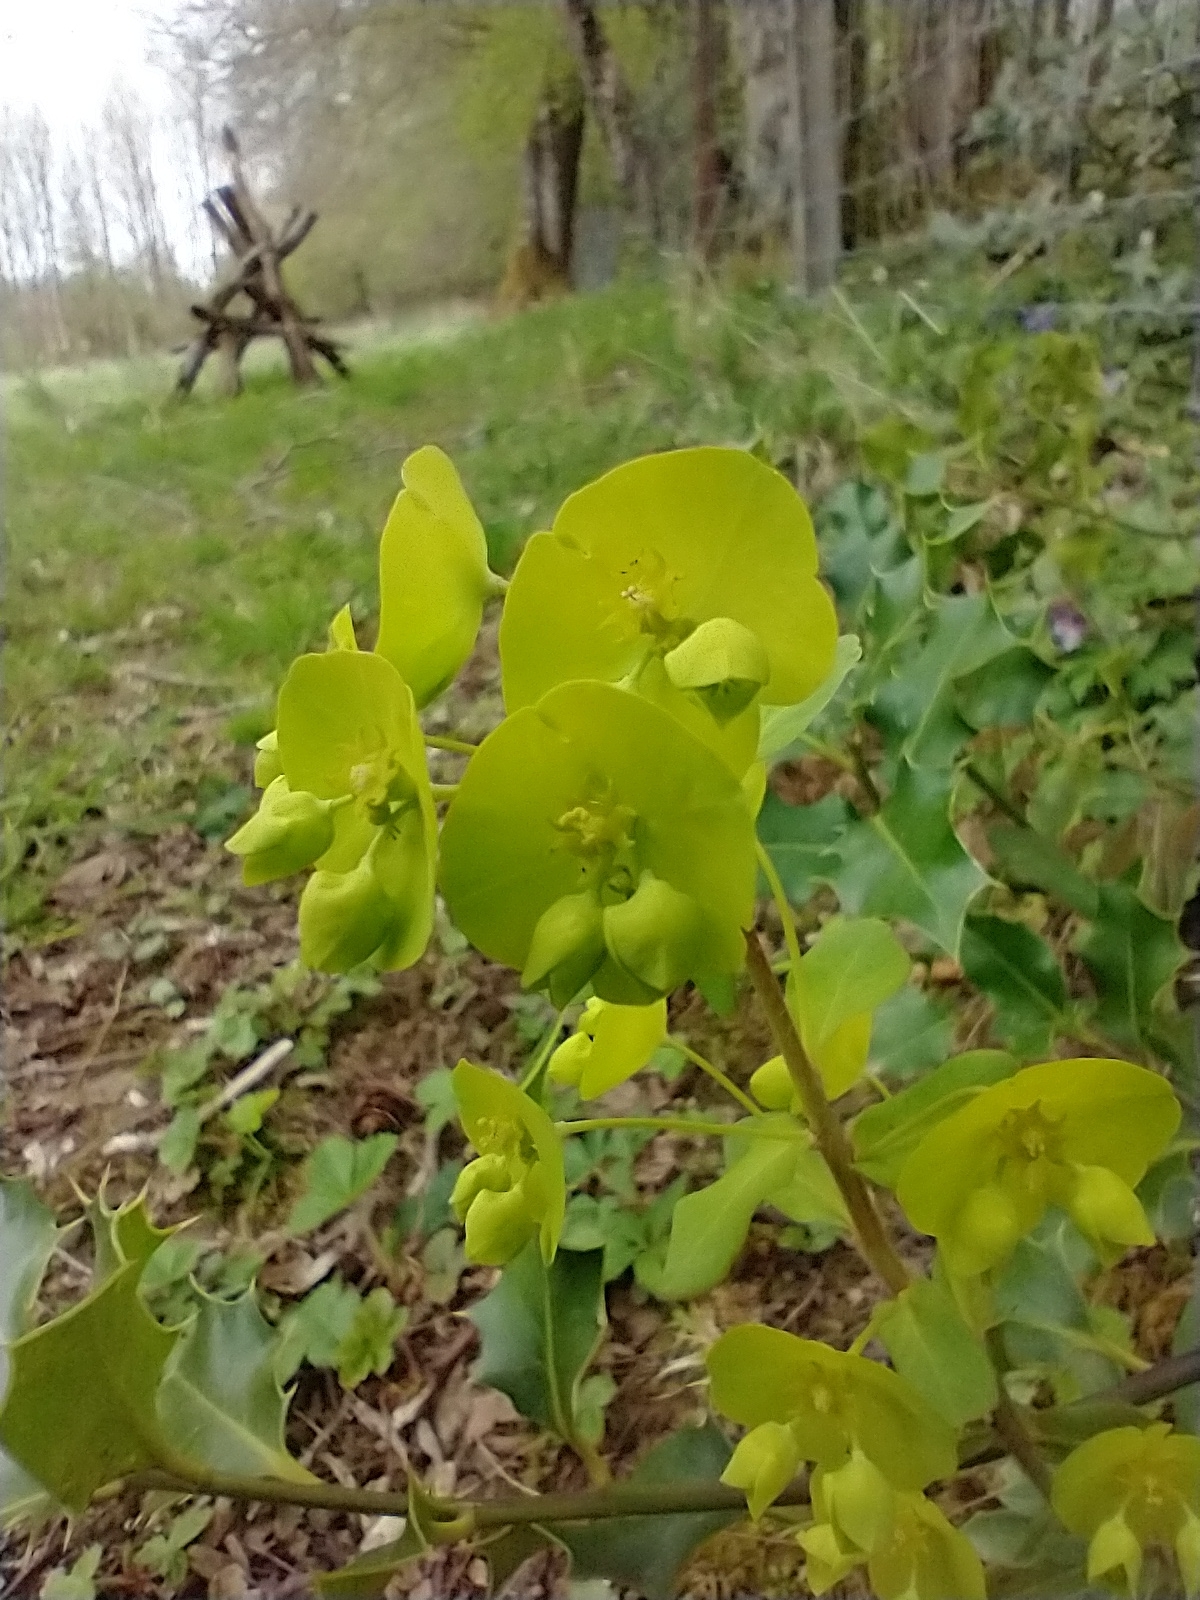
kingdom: Plantae
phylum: Tracheophyta
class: Magnoliopsida
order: Malpighiales
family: Euphorbiaceae
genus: Euphorbia
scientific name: Euphorbia amygdaloides
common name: Wood spurge
